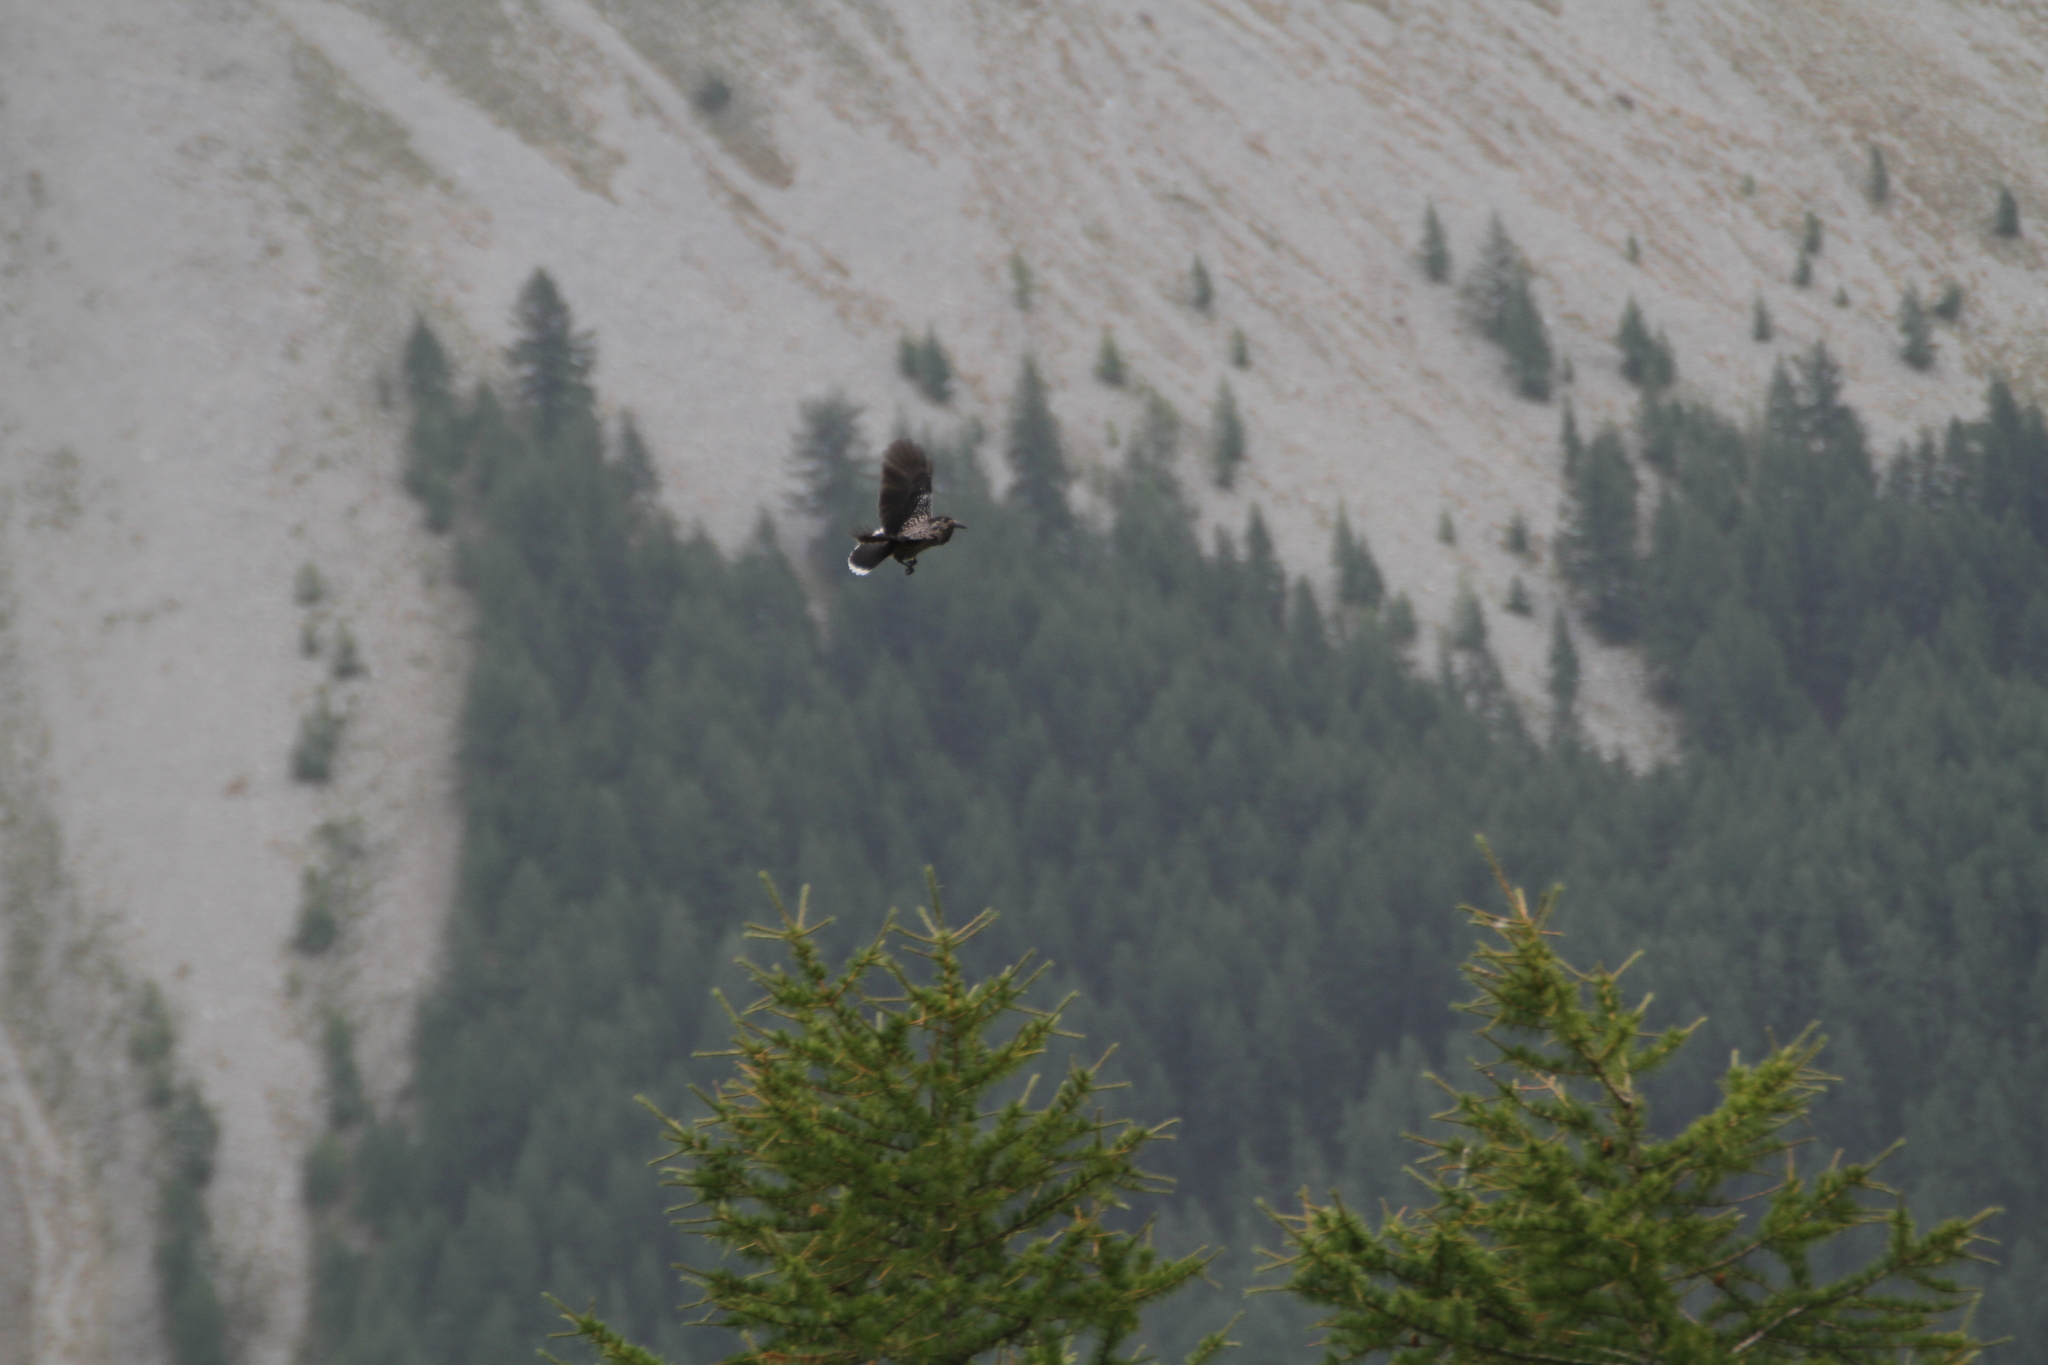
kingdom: Animalia
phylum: Chordata
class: Aves
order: Passeriformes
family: Corvidae
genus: Nucifraga
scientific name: Nucifraga caryocatactes
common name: Spotted nutcracker
